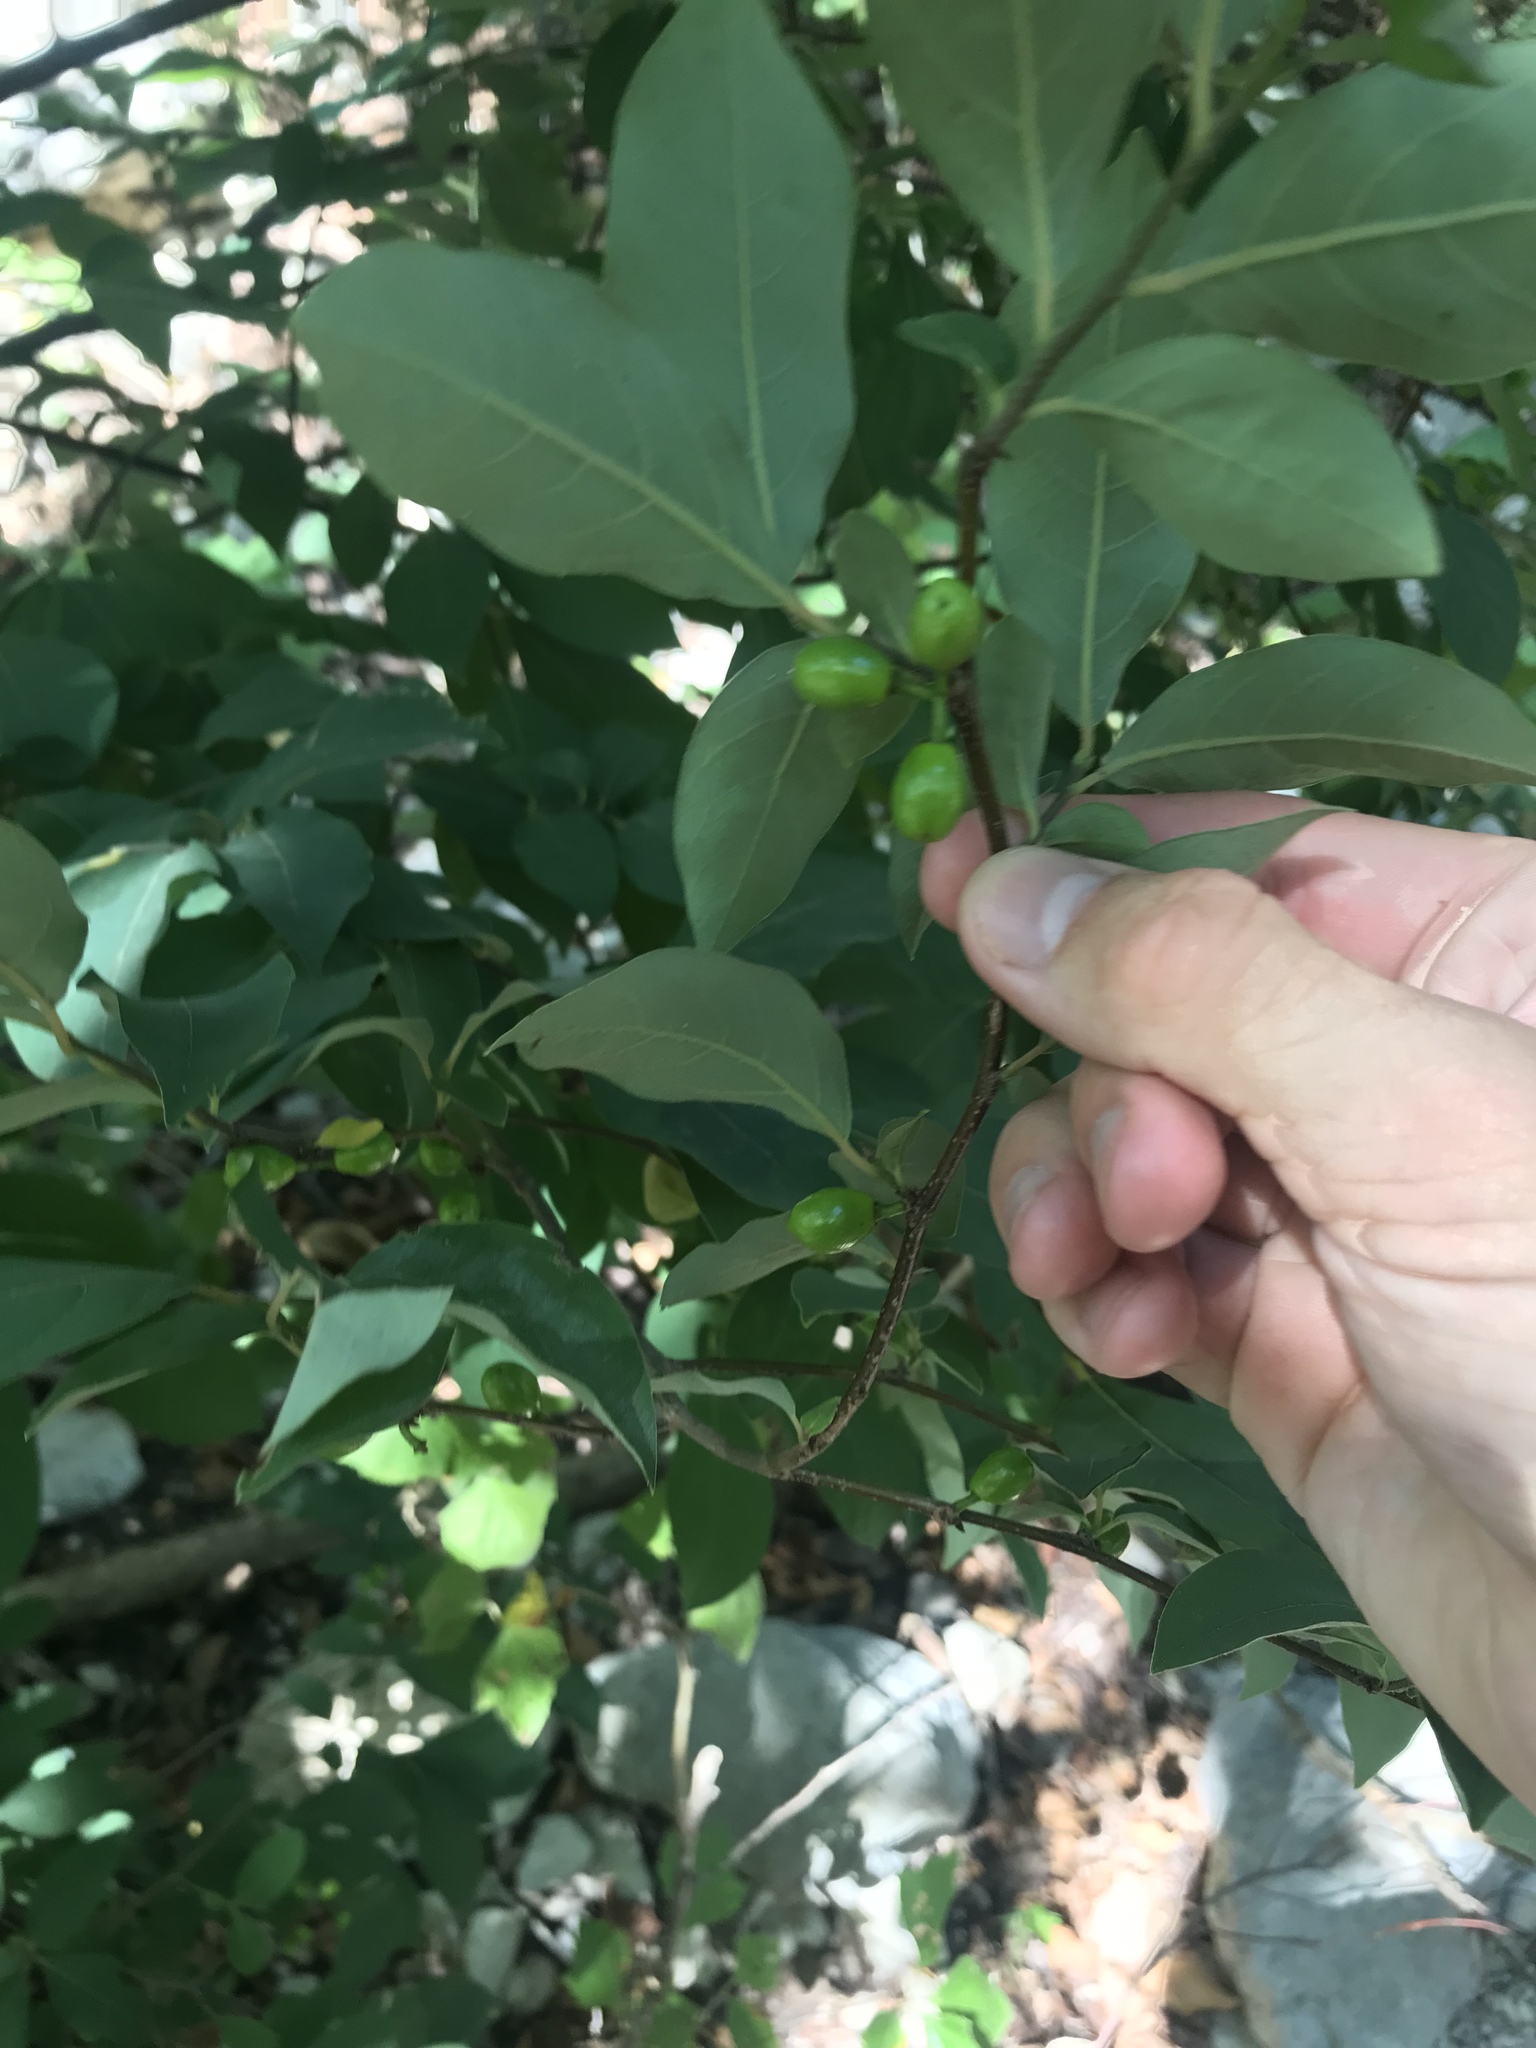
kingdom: Plantae
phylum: Tracheophyta
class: Magnoliopsida
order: Rosales
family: Rhamnaceae
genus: Frangula
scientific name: Frangula caroliniana
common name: Carolina buckthorn
